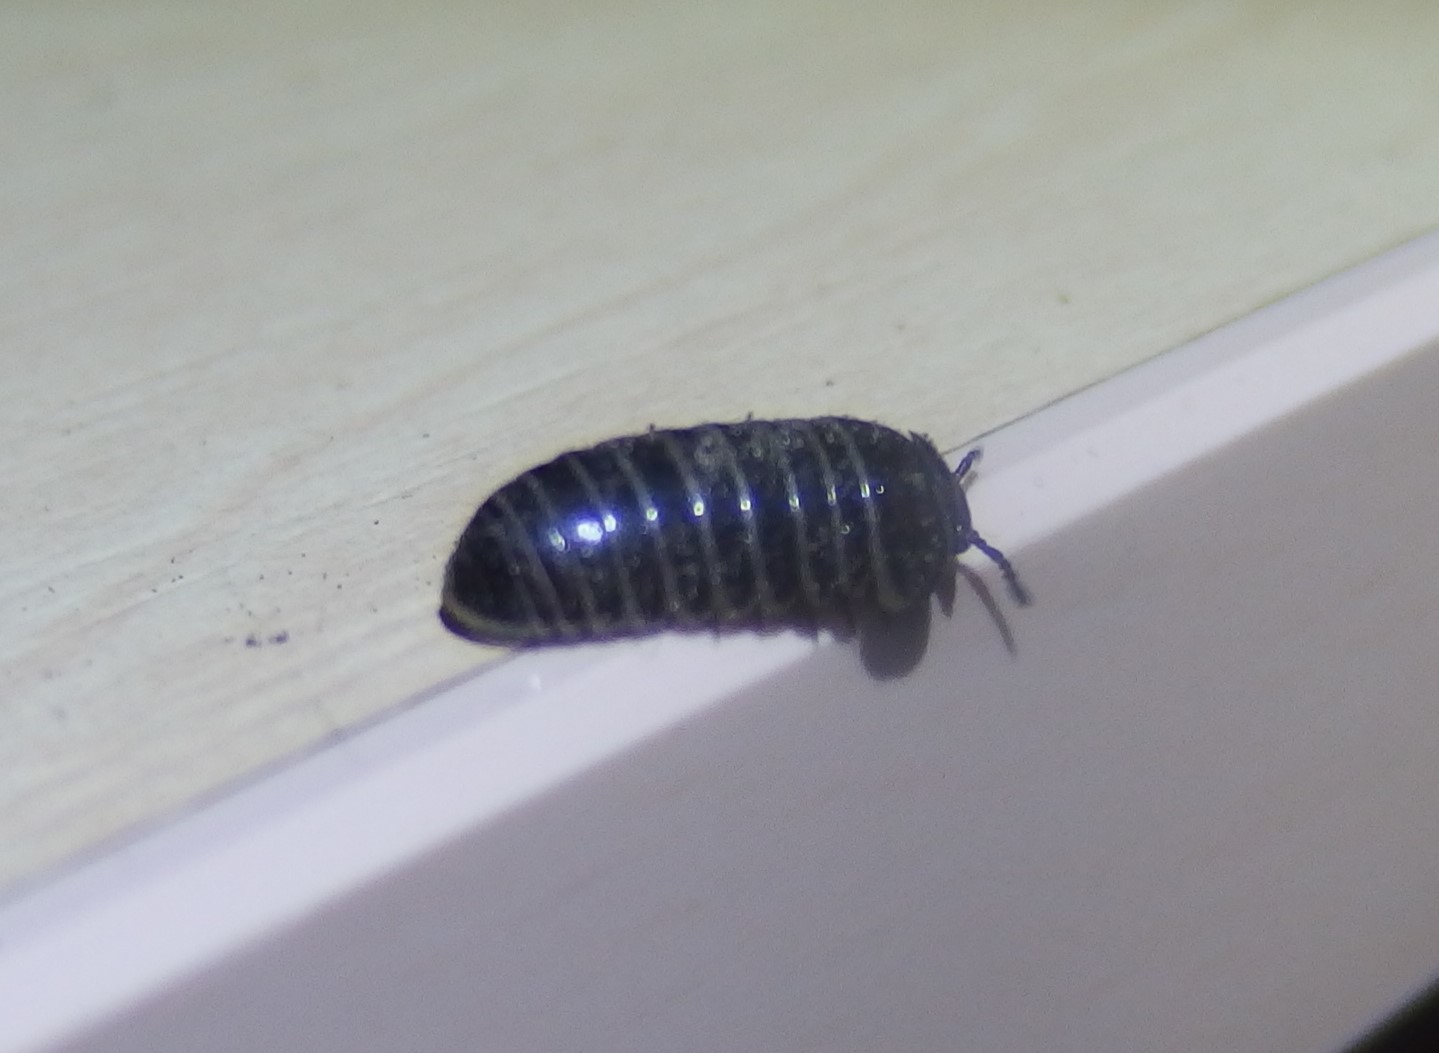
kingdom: Animalia
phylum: Arthropoda
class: Diplopoda
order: Glomerida
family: Glomeridae
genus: Glomeris
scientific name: Glomeris marginata
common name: Bordered pill millipede
